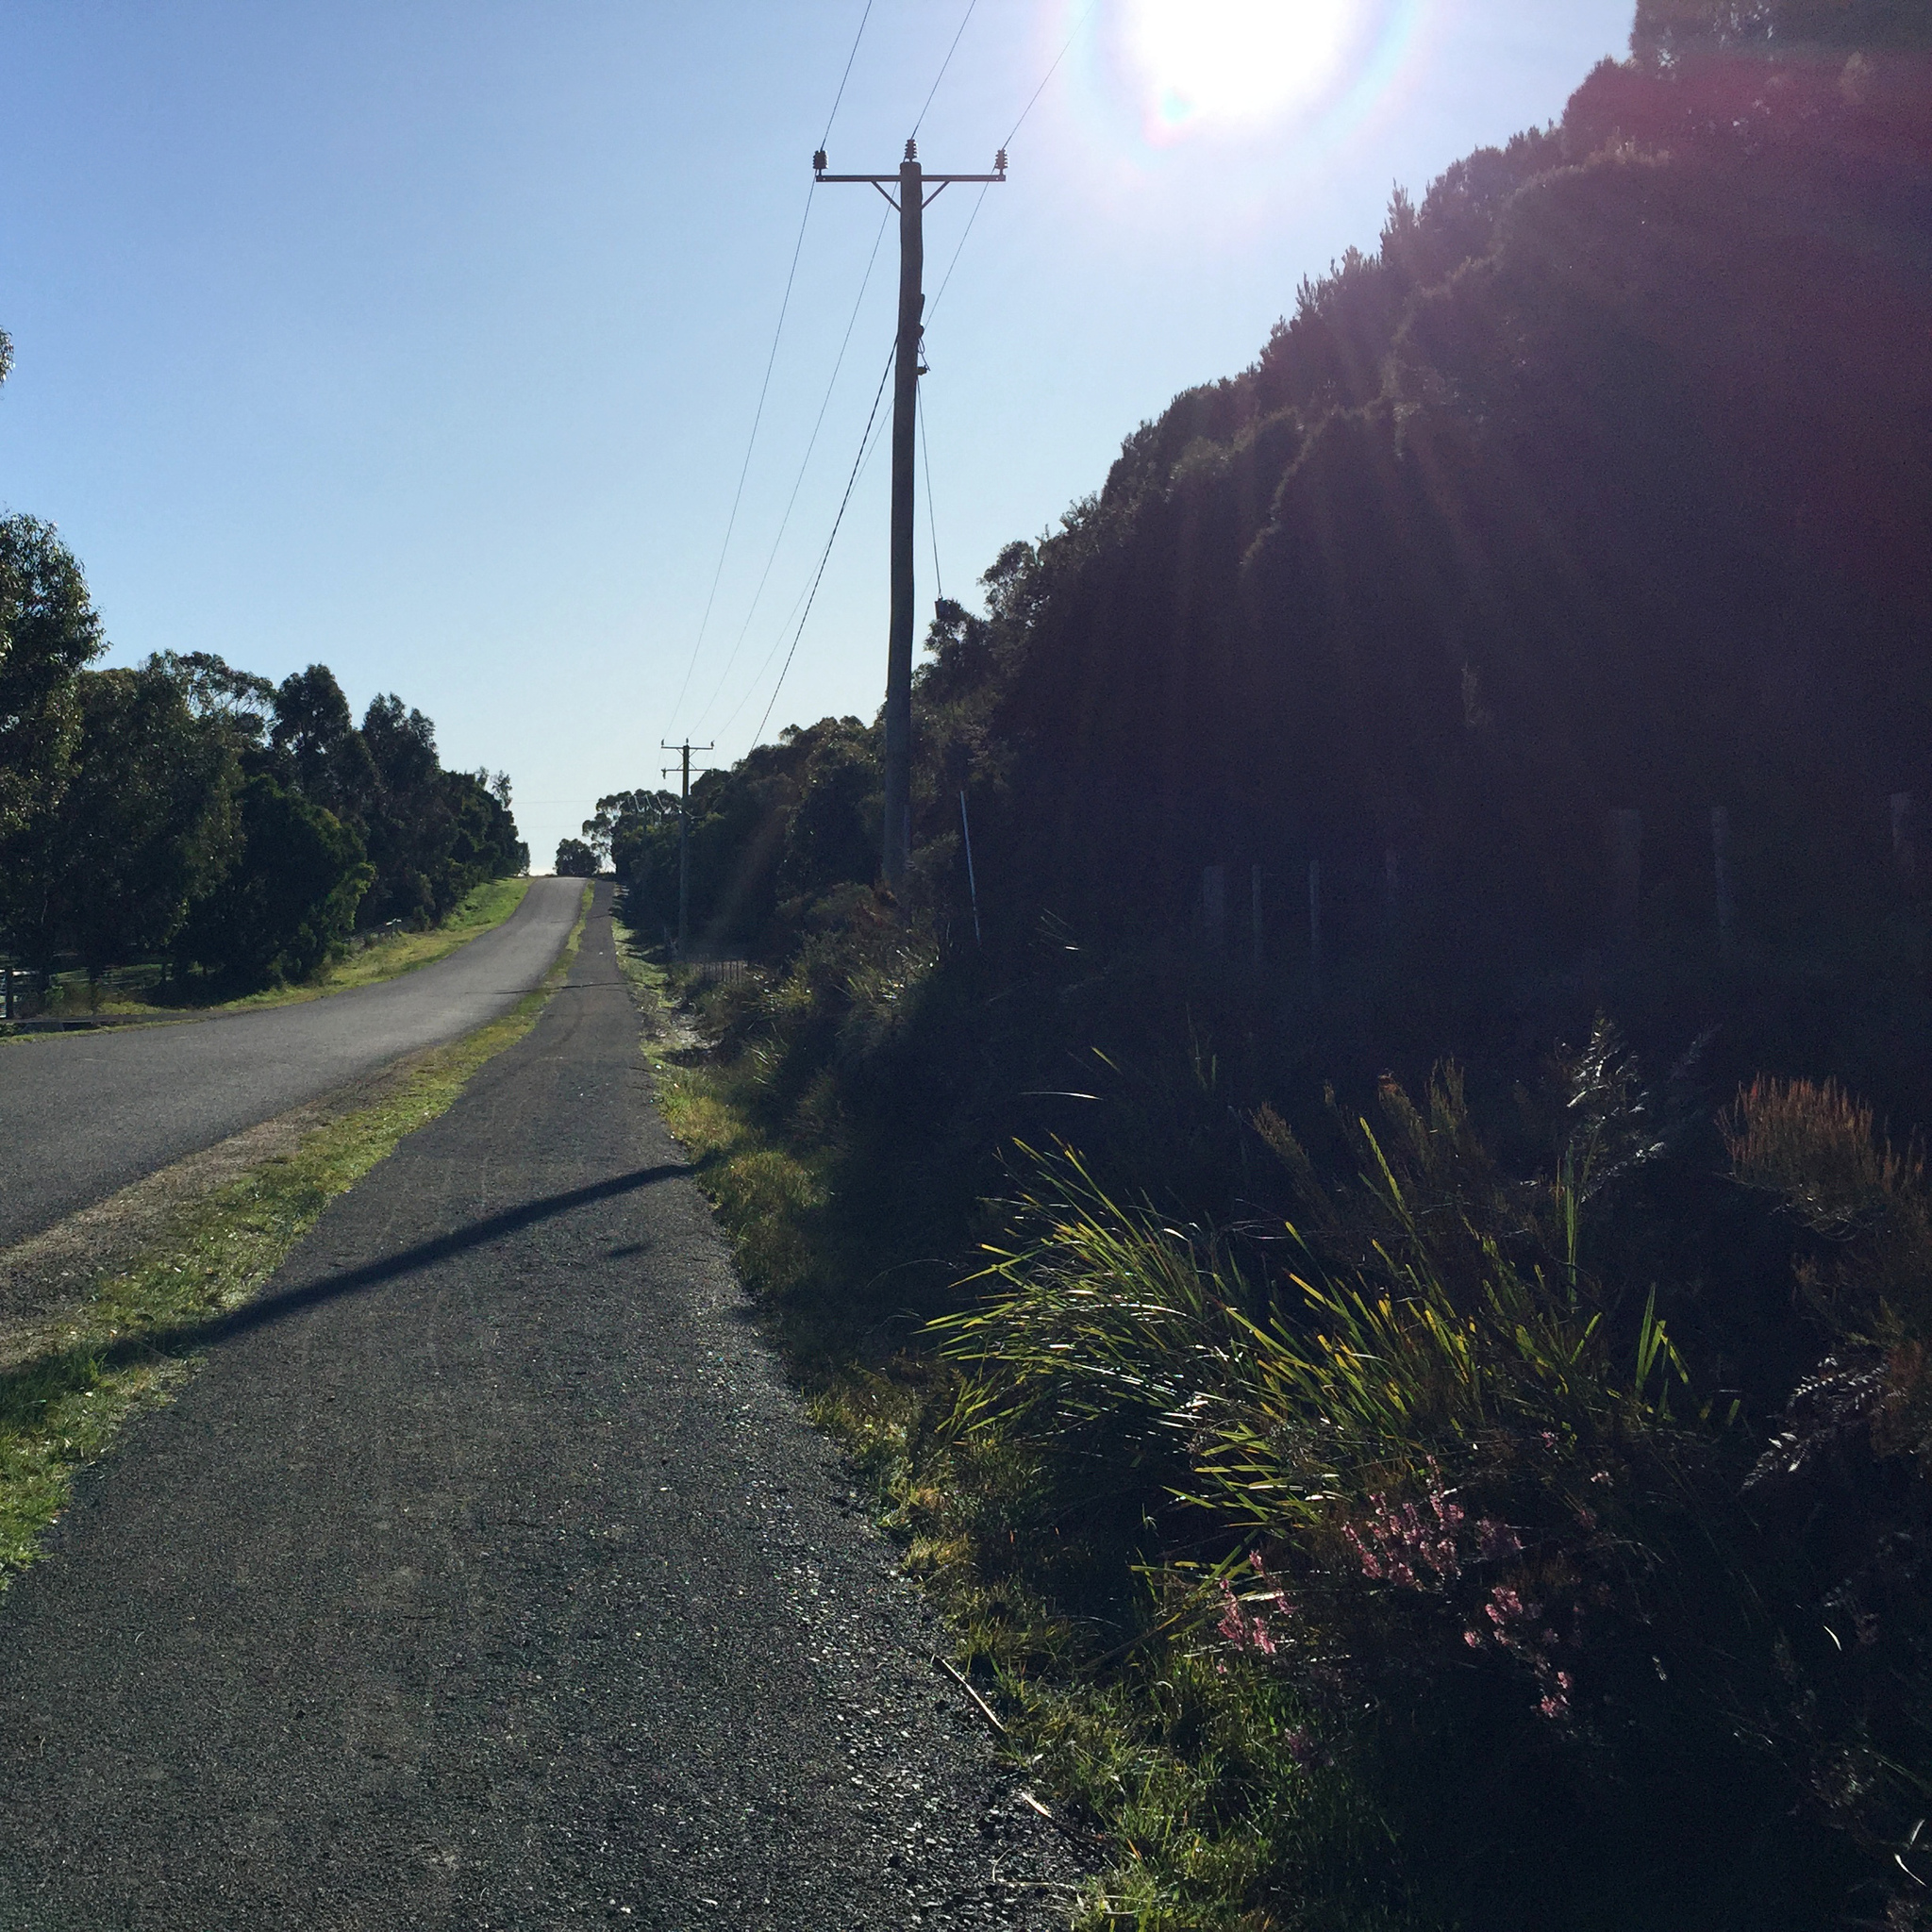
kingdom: Plantae
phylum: Tracheophyta
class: Magnoliopsida
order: Ericales
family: Ericaceae
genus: Epacris
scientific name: Epacris impressa
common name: Common-heath
